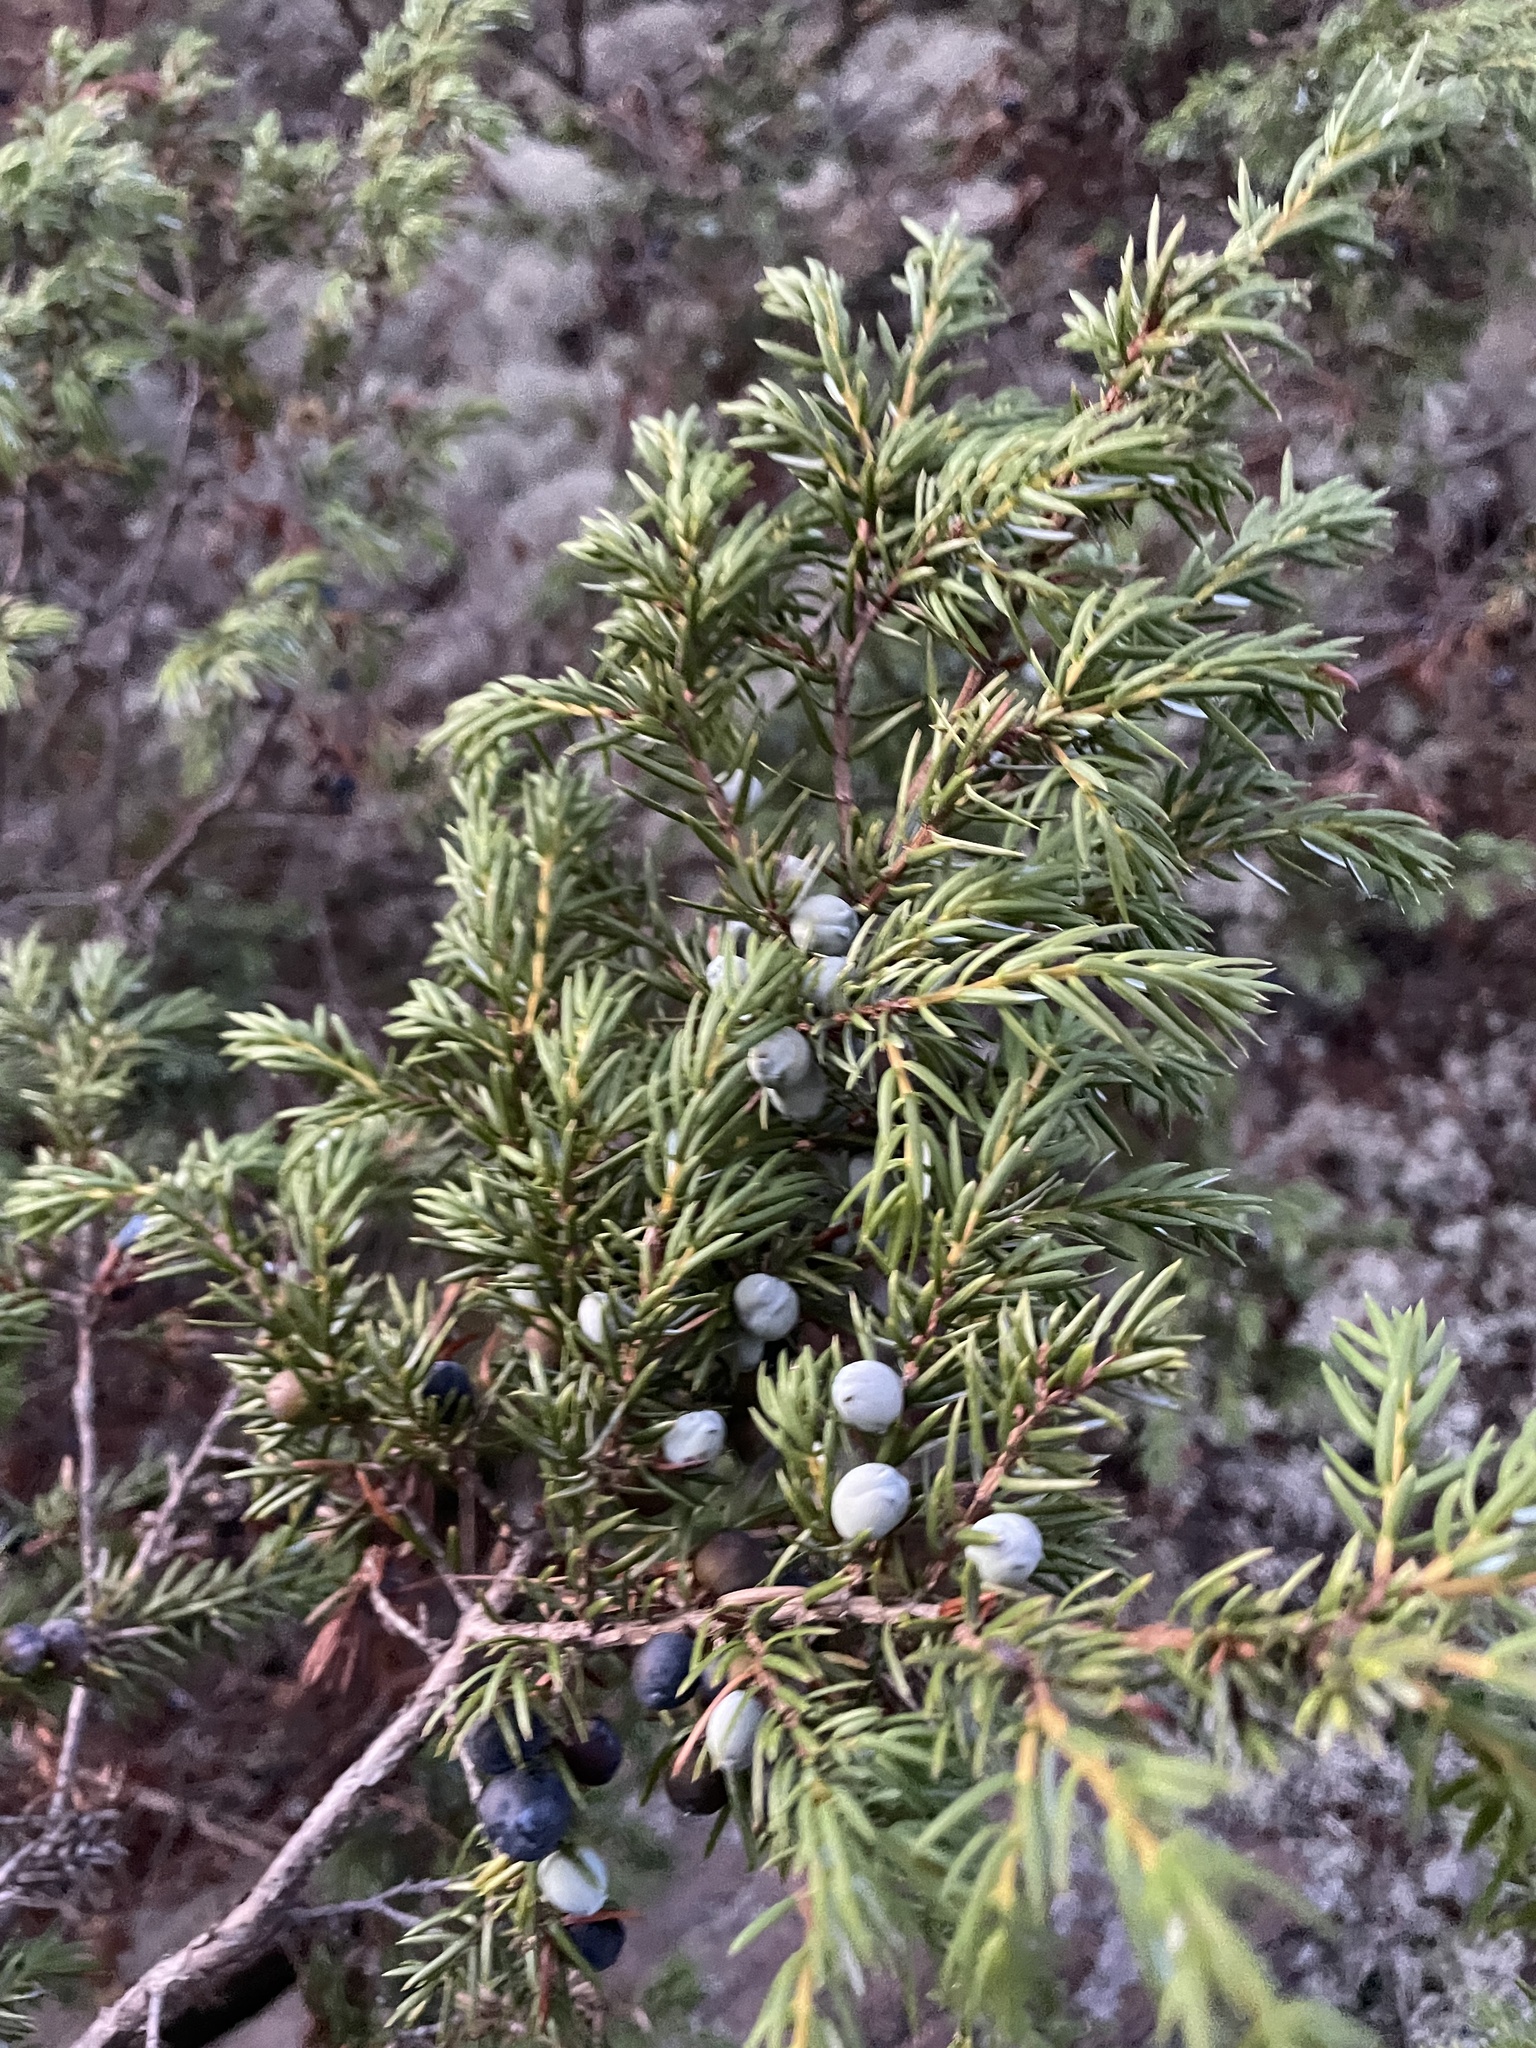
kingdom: Plantae
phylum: Tracheophyta
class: Pinopsida
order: Pinales
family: Cupressaceae
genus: Juniperus
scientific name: Juniperus communis
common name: Common juniper
